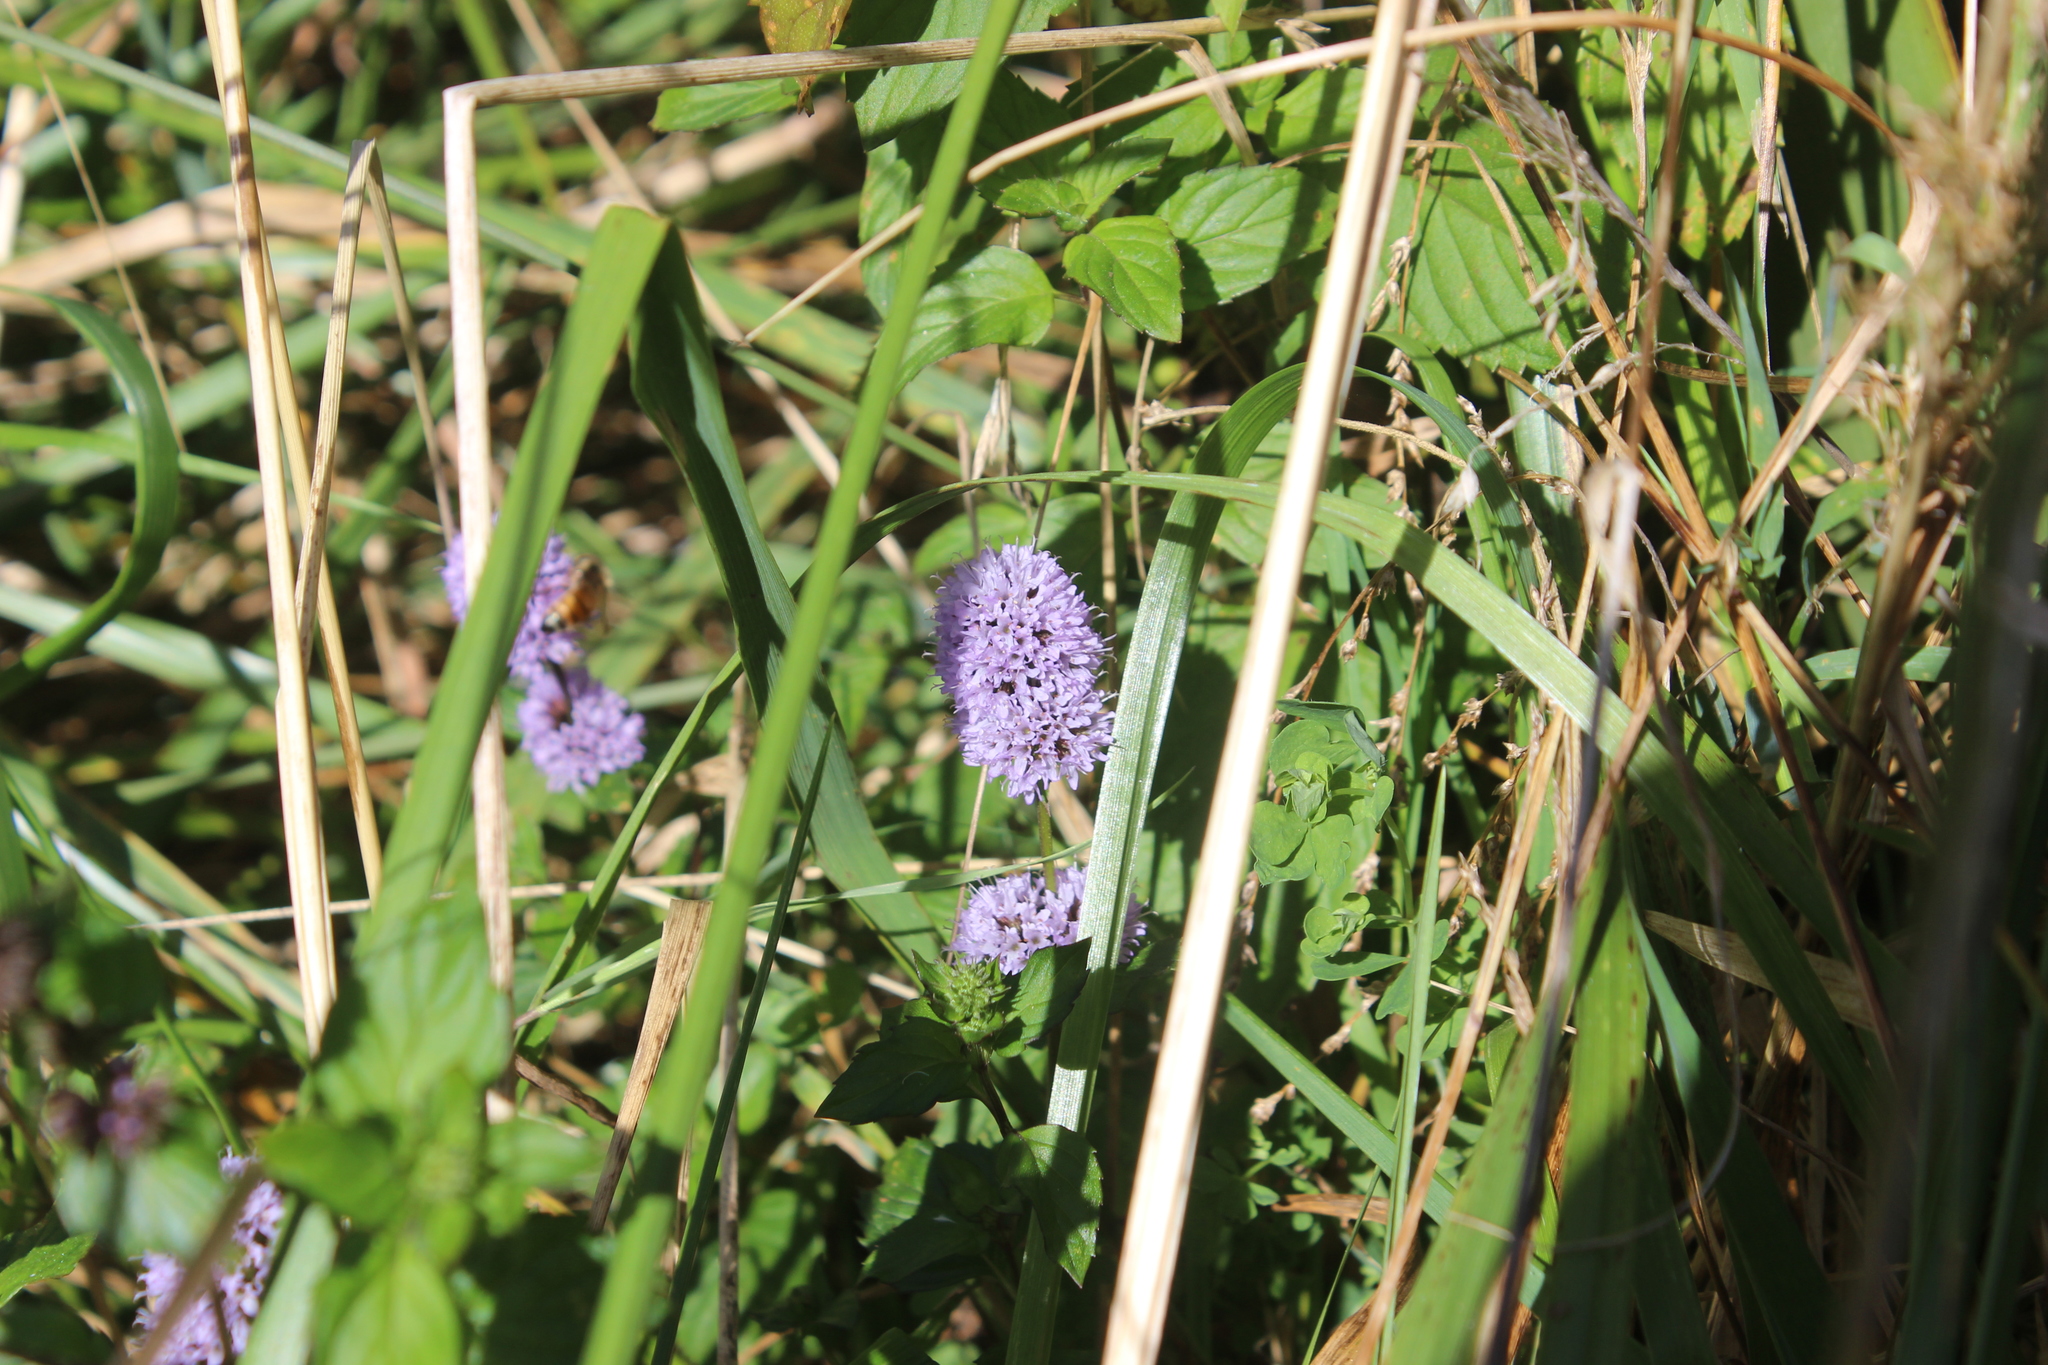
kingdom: Plantae
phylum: Tracheophyta
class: Magnoliopsida
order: Lamiales
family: Lamiaceae
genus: Mentha
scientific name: Mentha piperita
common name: Peppermint
